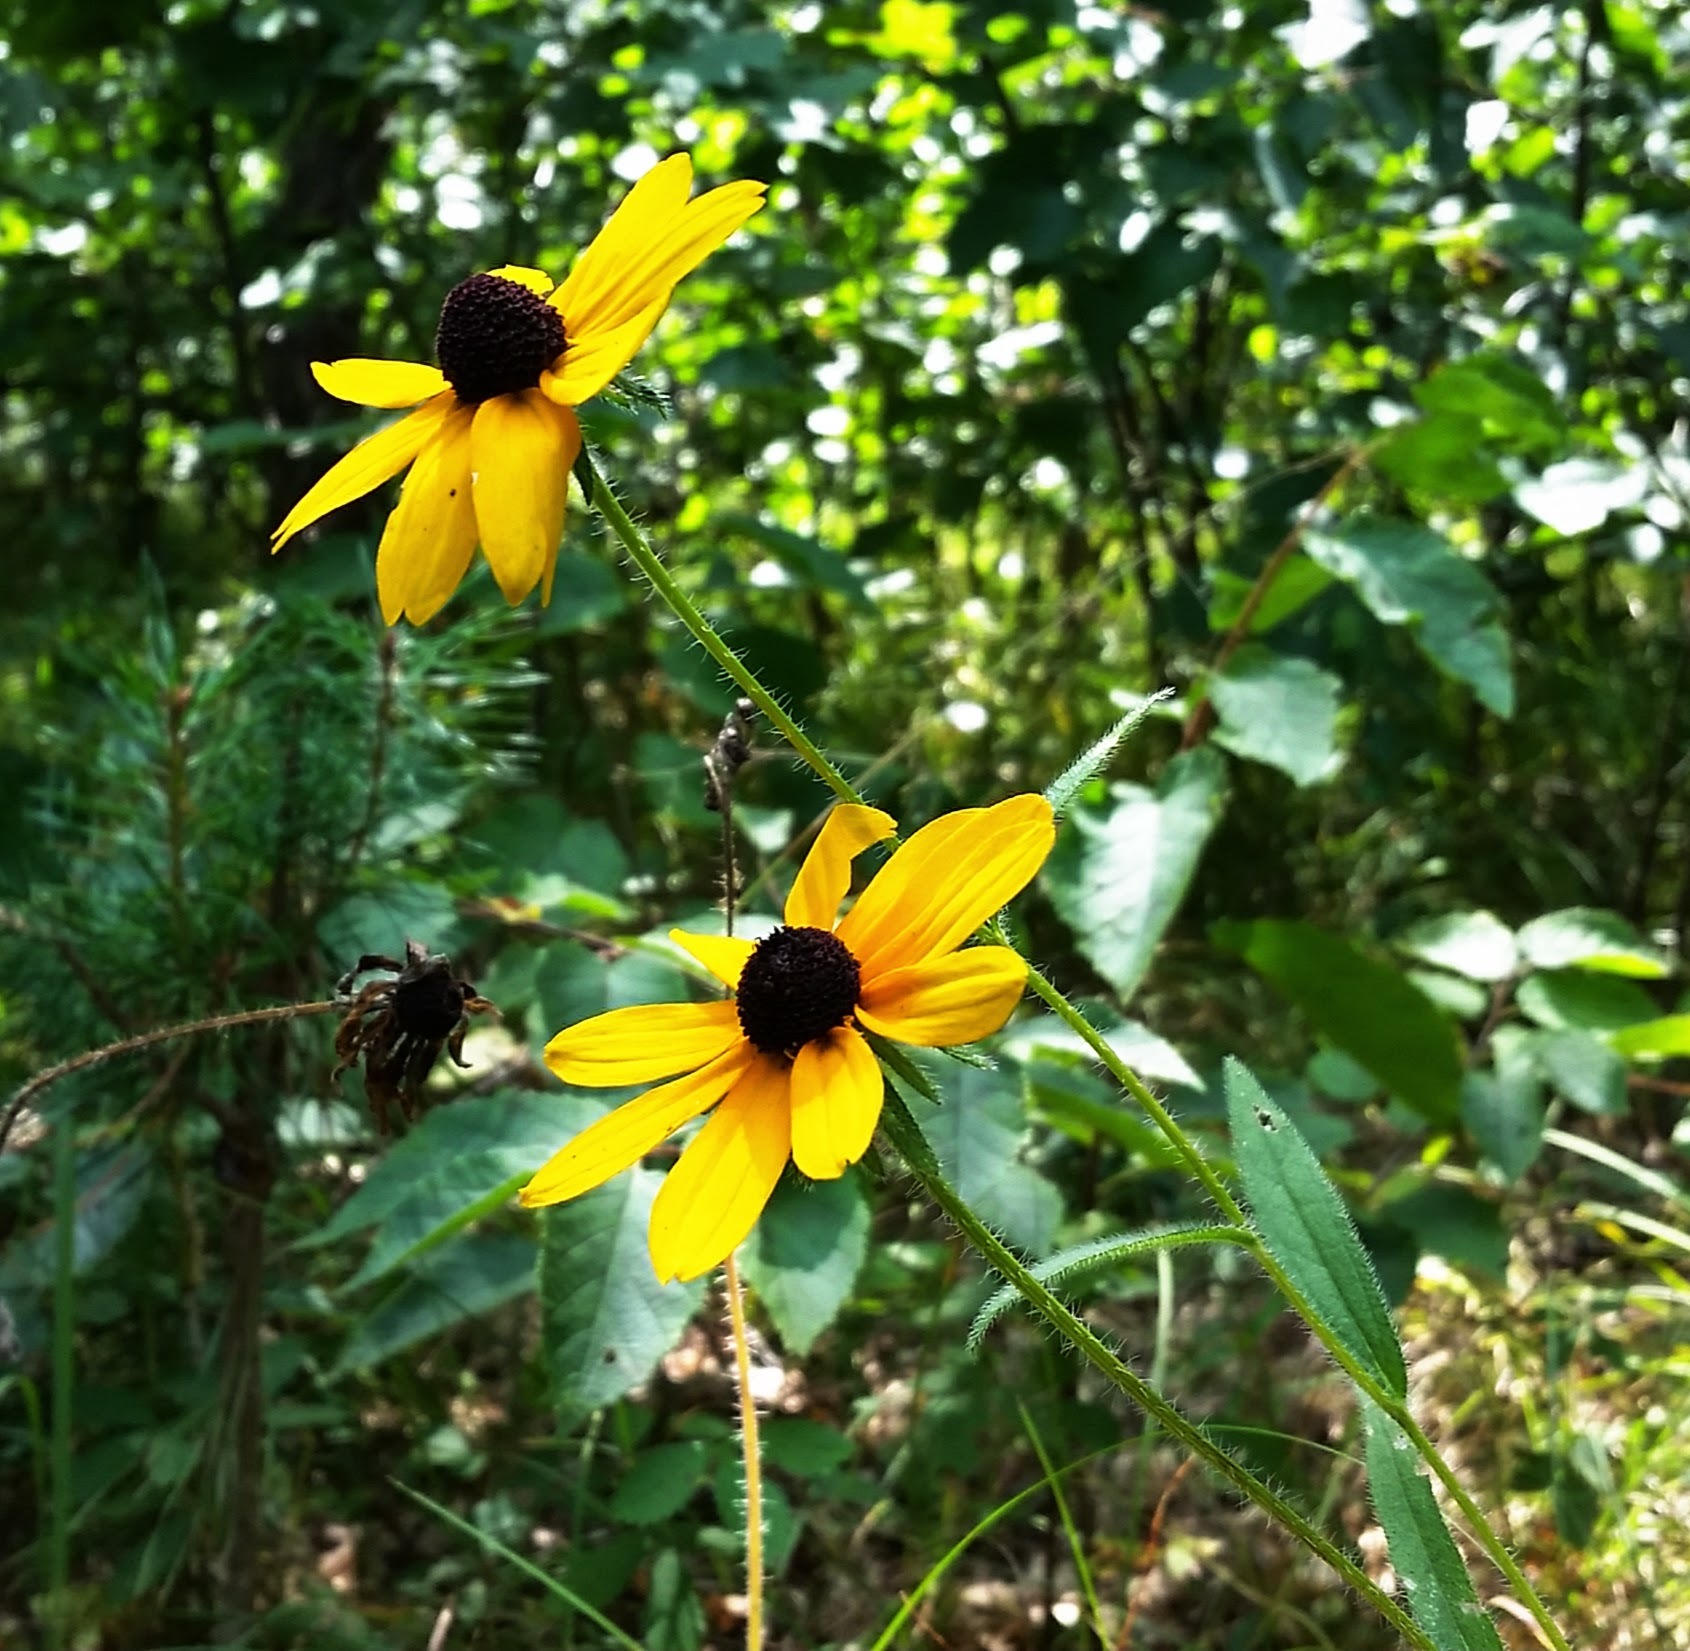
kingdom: Plantae
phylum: Tracheophyta
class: Magnoliopsida
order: Asterales
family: Asteraceae
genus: Rudbeckia
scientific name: Rudbeckia hirta
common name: Black-eyed-susan
